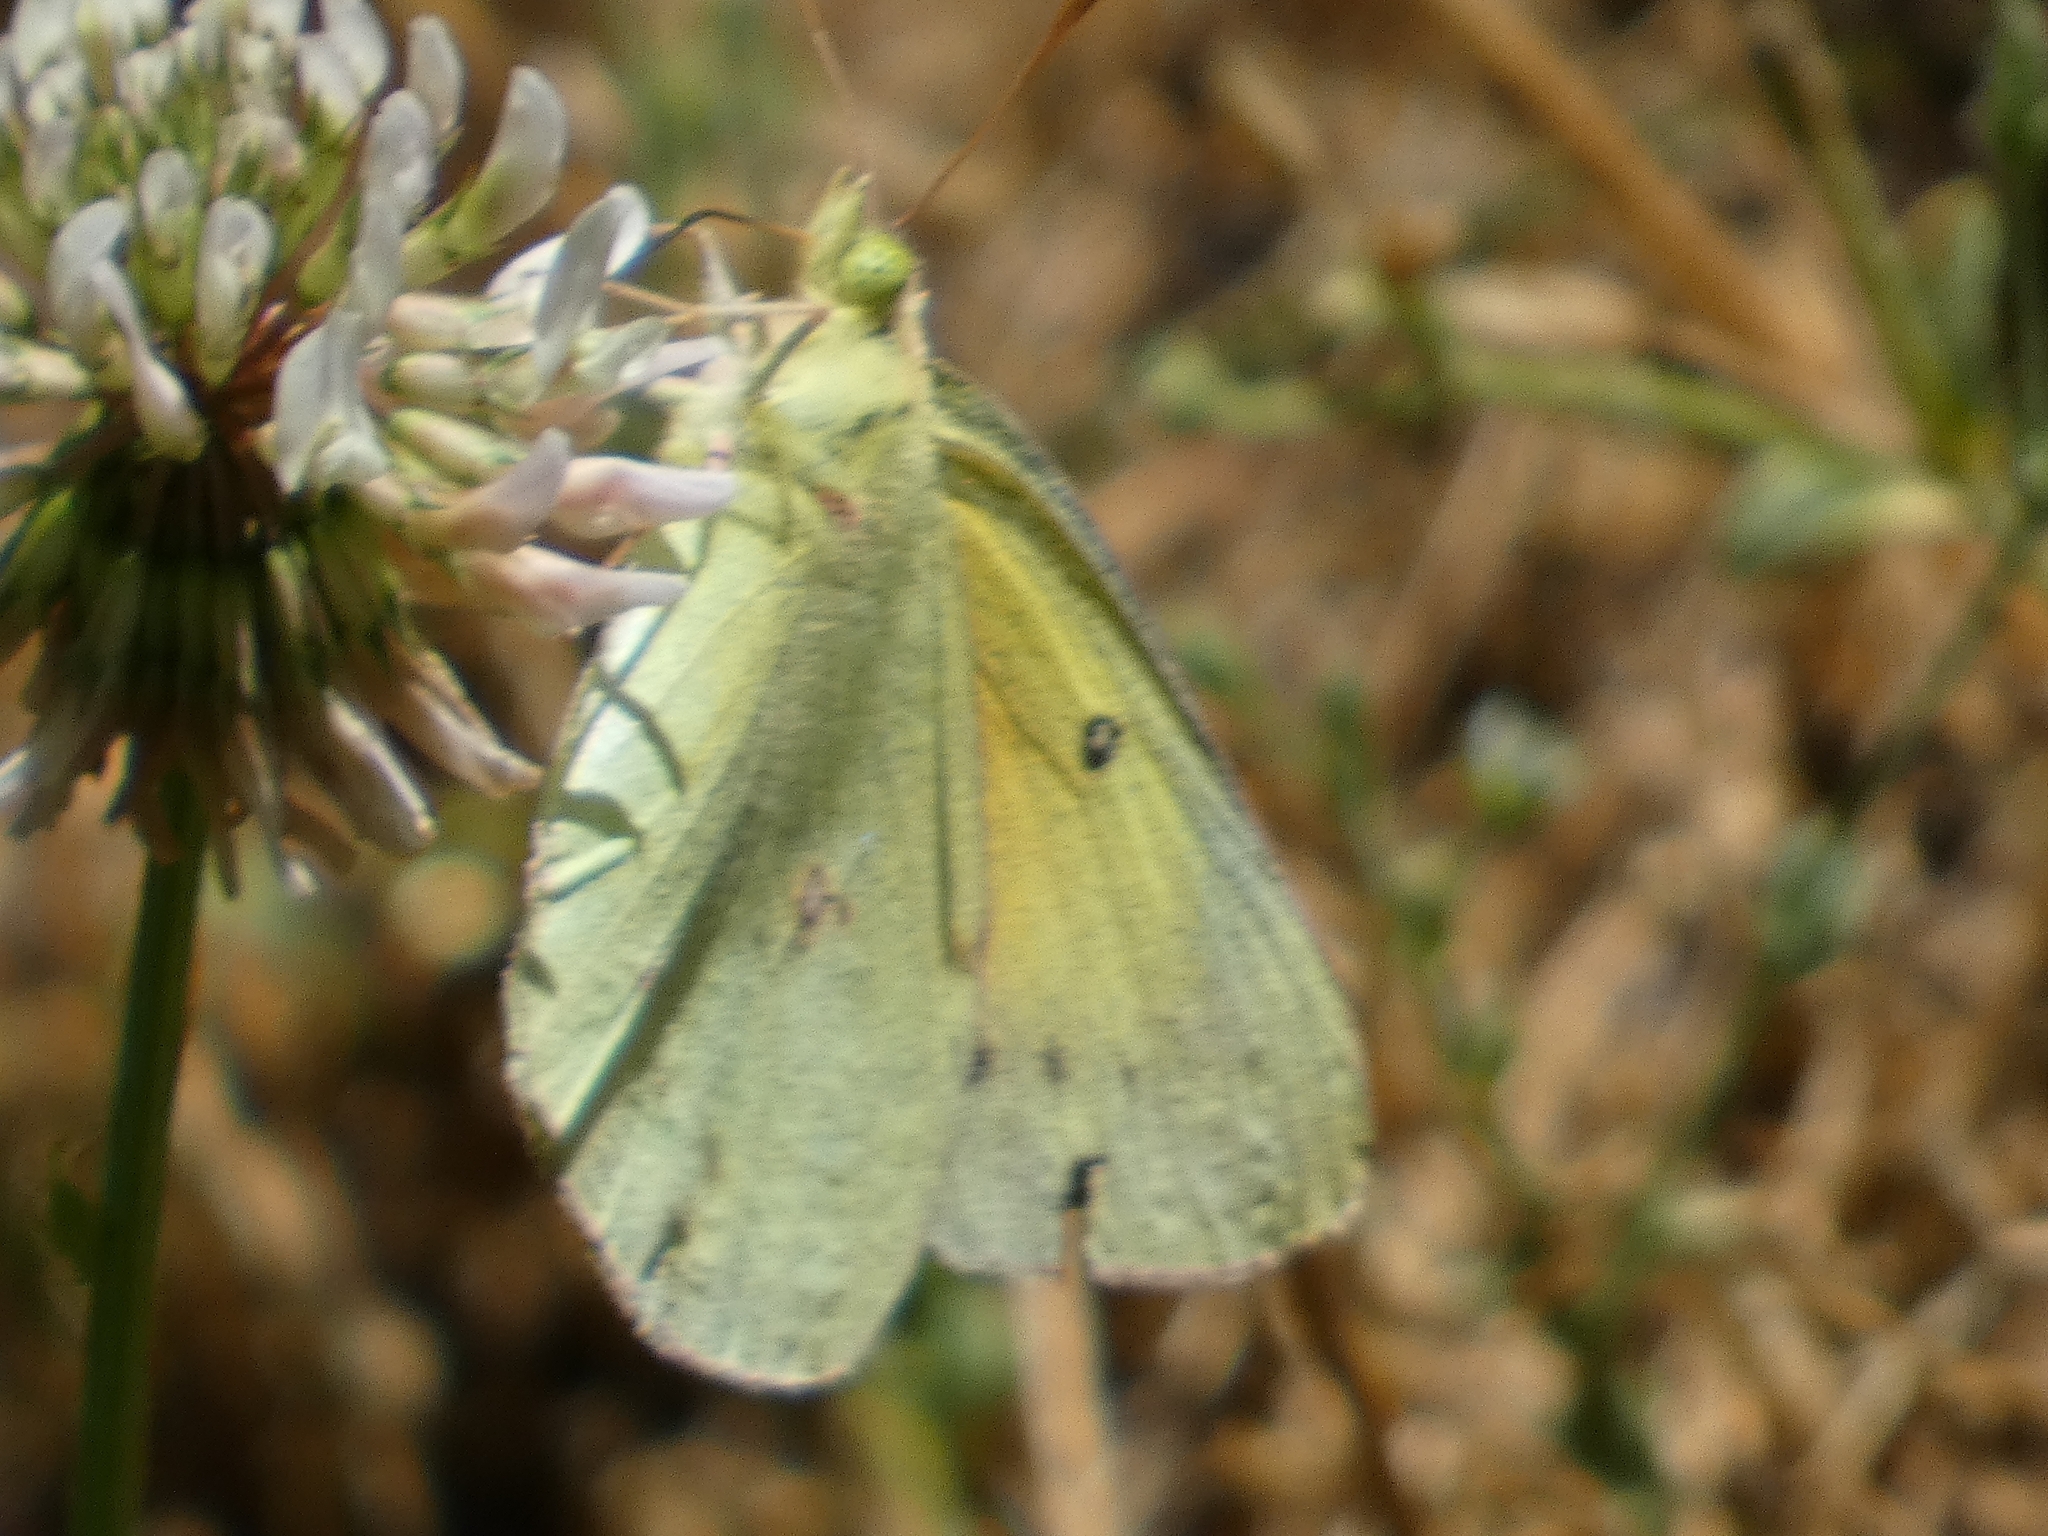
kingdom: Animalia
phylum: Arthropoda
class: Insecta
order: Lepidoptera
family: Pieridae
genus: Colias
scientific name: Colias eurytheme
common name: Alfalfa butterfly
